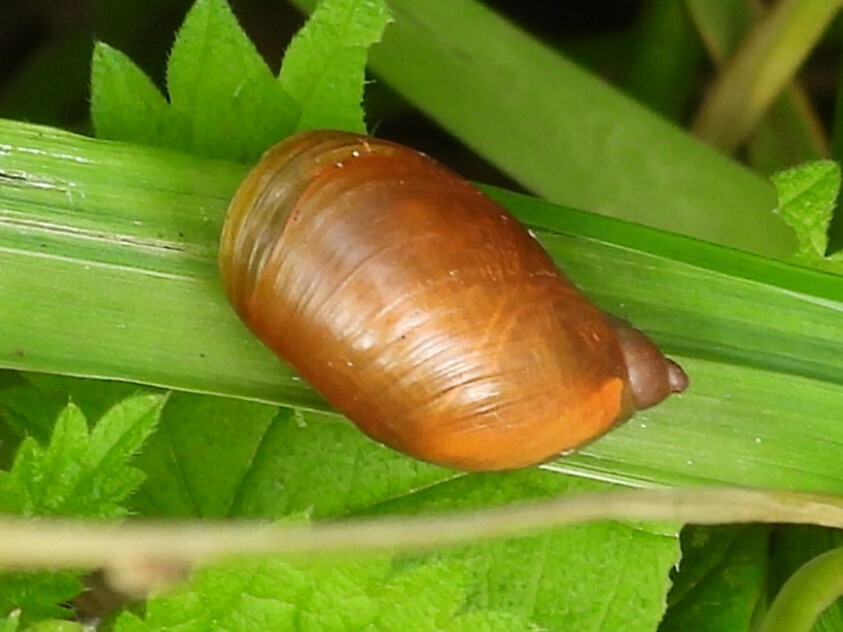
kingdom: Animalia
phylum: Mollusca
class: Gastropoda
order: Stylommatophora
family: Succineidae
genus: Succinea
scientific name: Succinea putris
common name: European ambersnail
